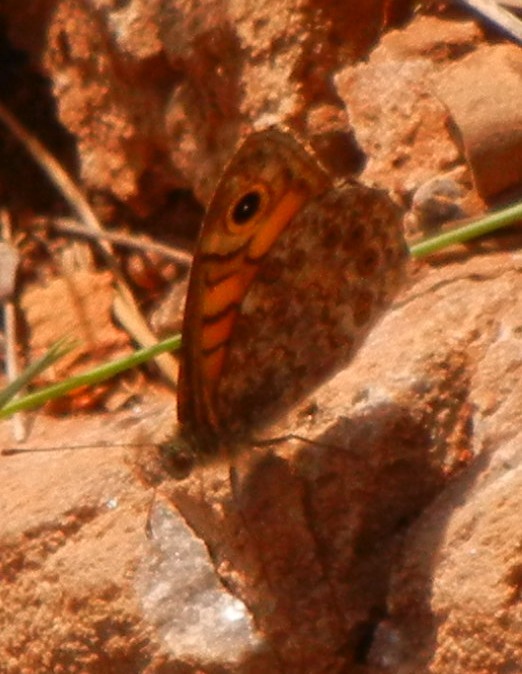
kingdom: Animalia
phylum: Arthropoda
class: Insecta
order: Lepidoptera
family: Nymphalidae
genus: Pararge
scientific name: Pararge Lasiommata megera
